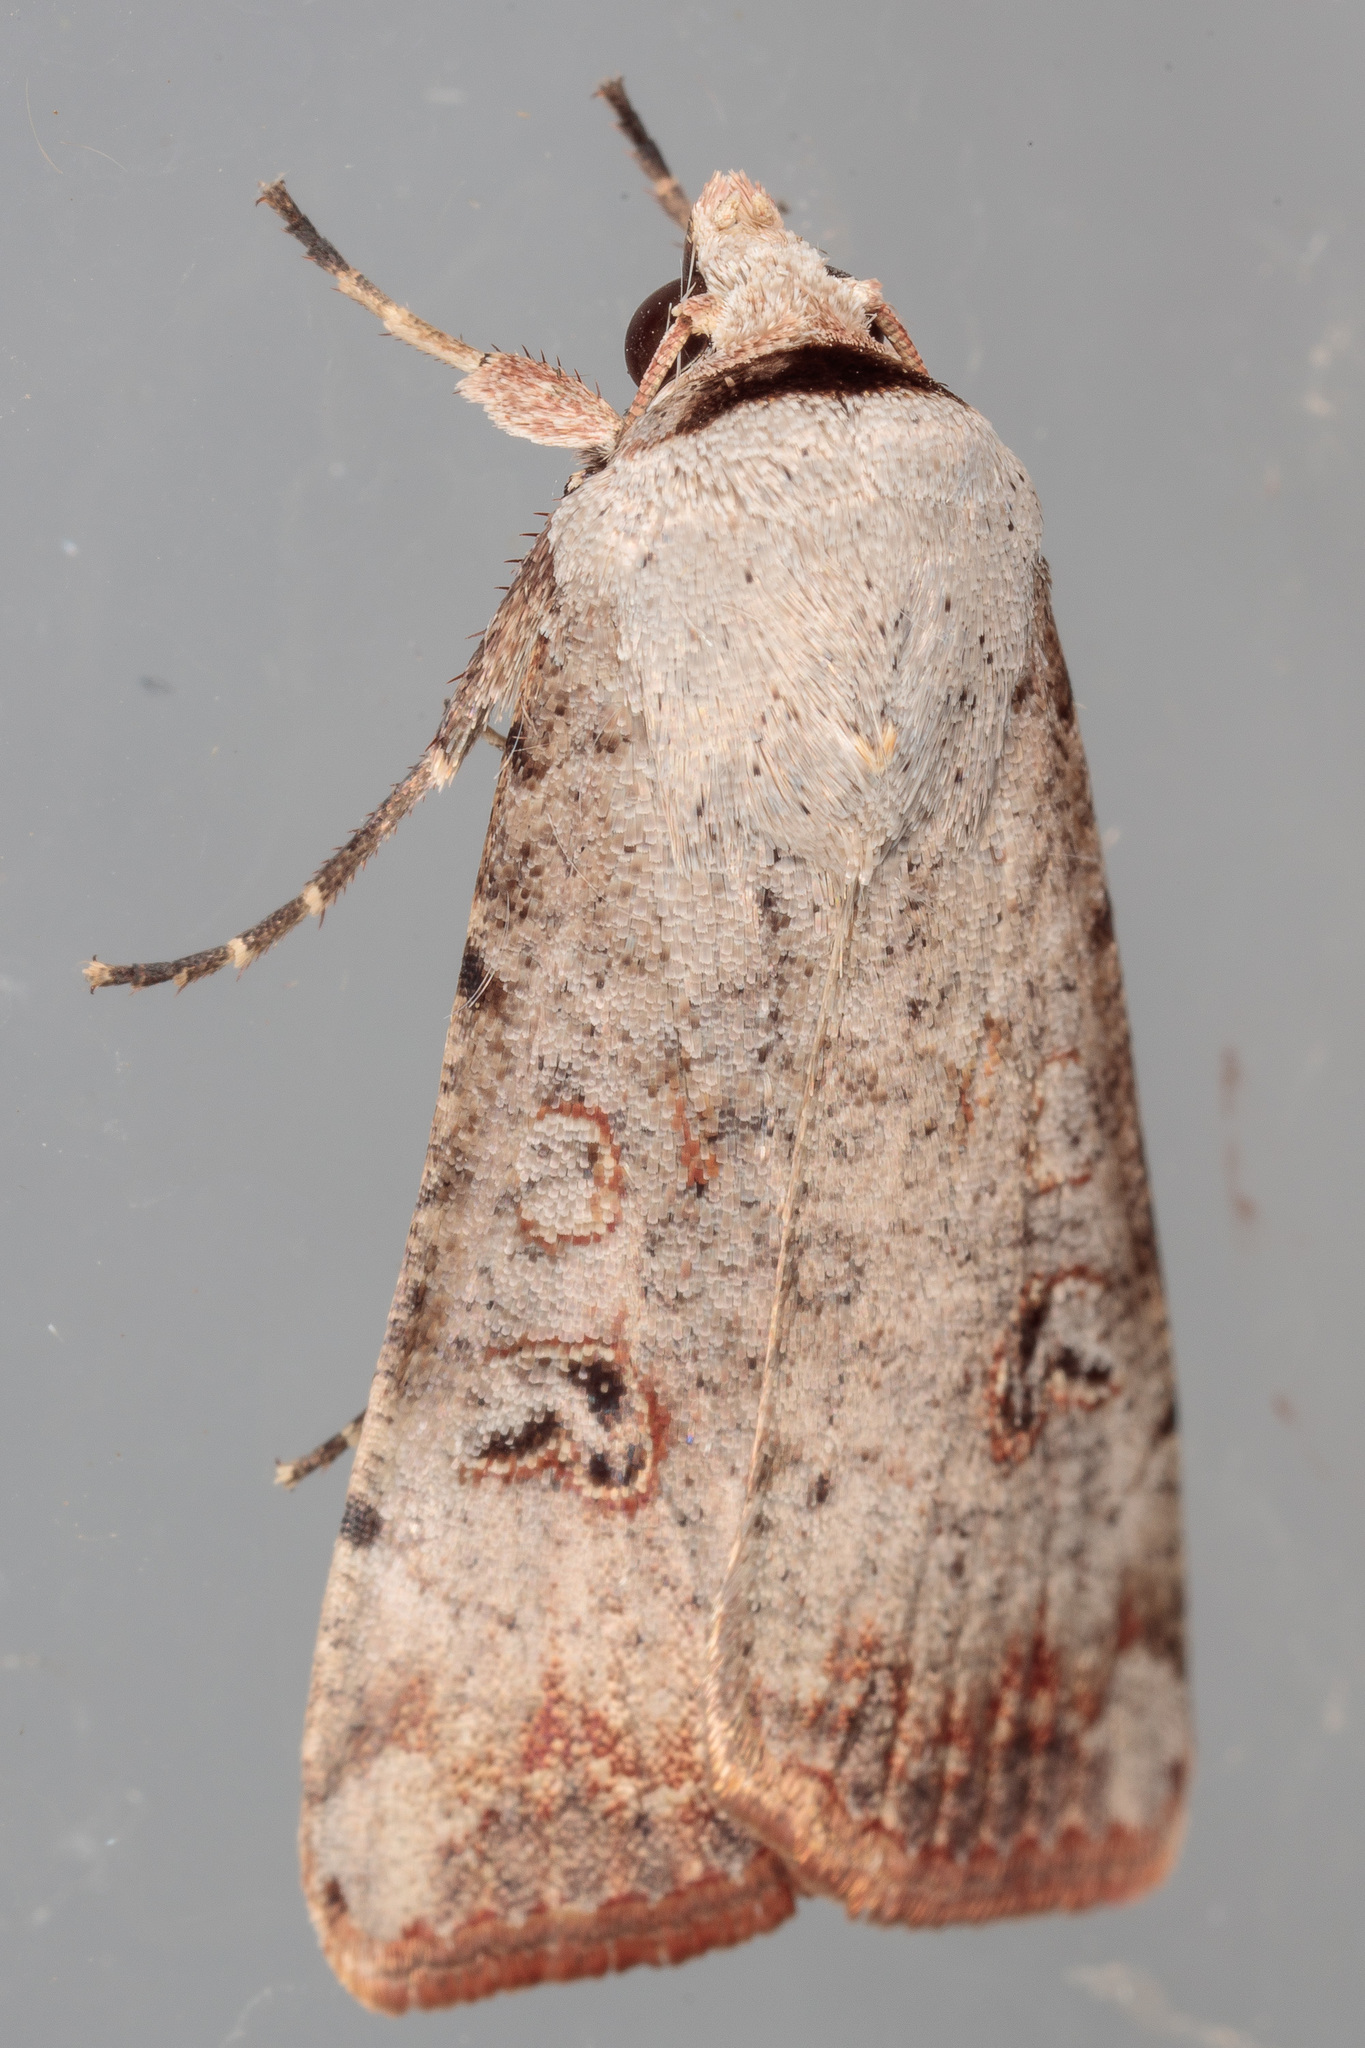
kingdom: Animalia
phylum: Arthropoda
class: Insecta
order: Lepidoptera
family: Noctuidae
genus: Anicla
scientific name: Anicla infecta
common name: Green cutworm
